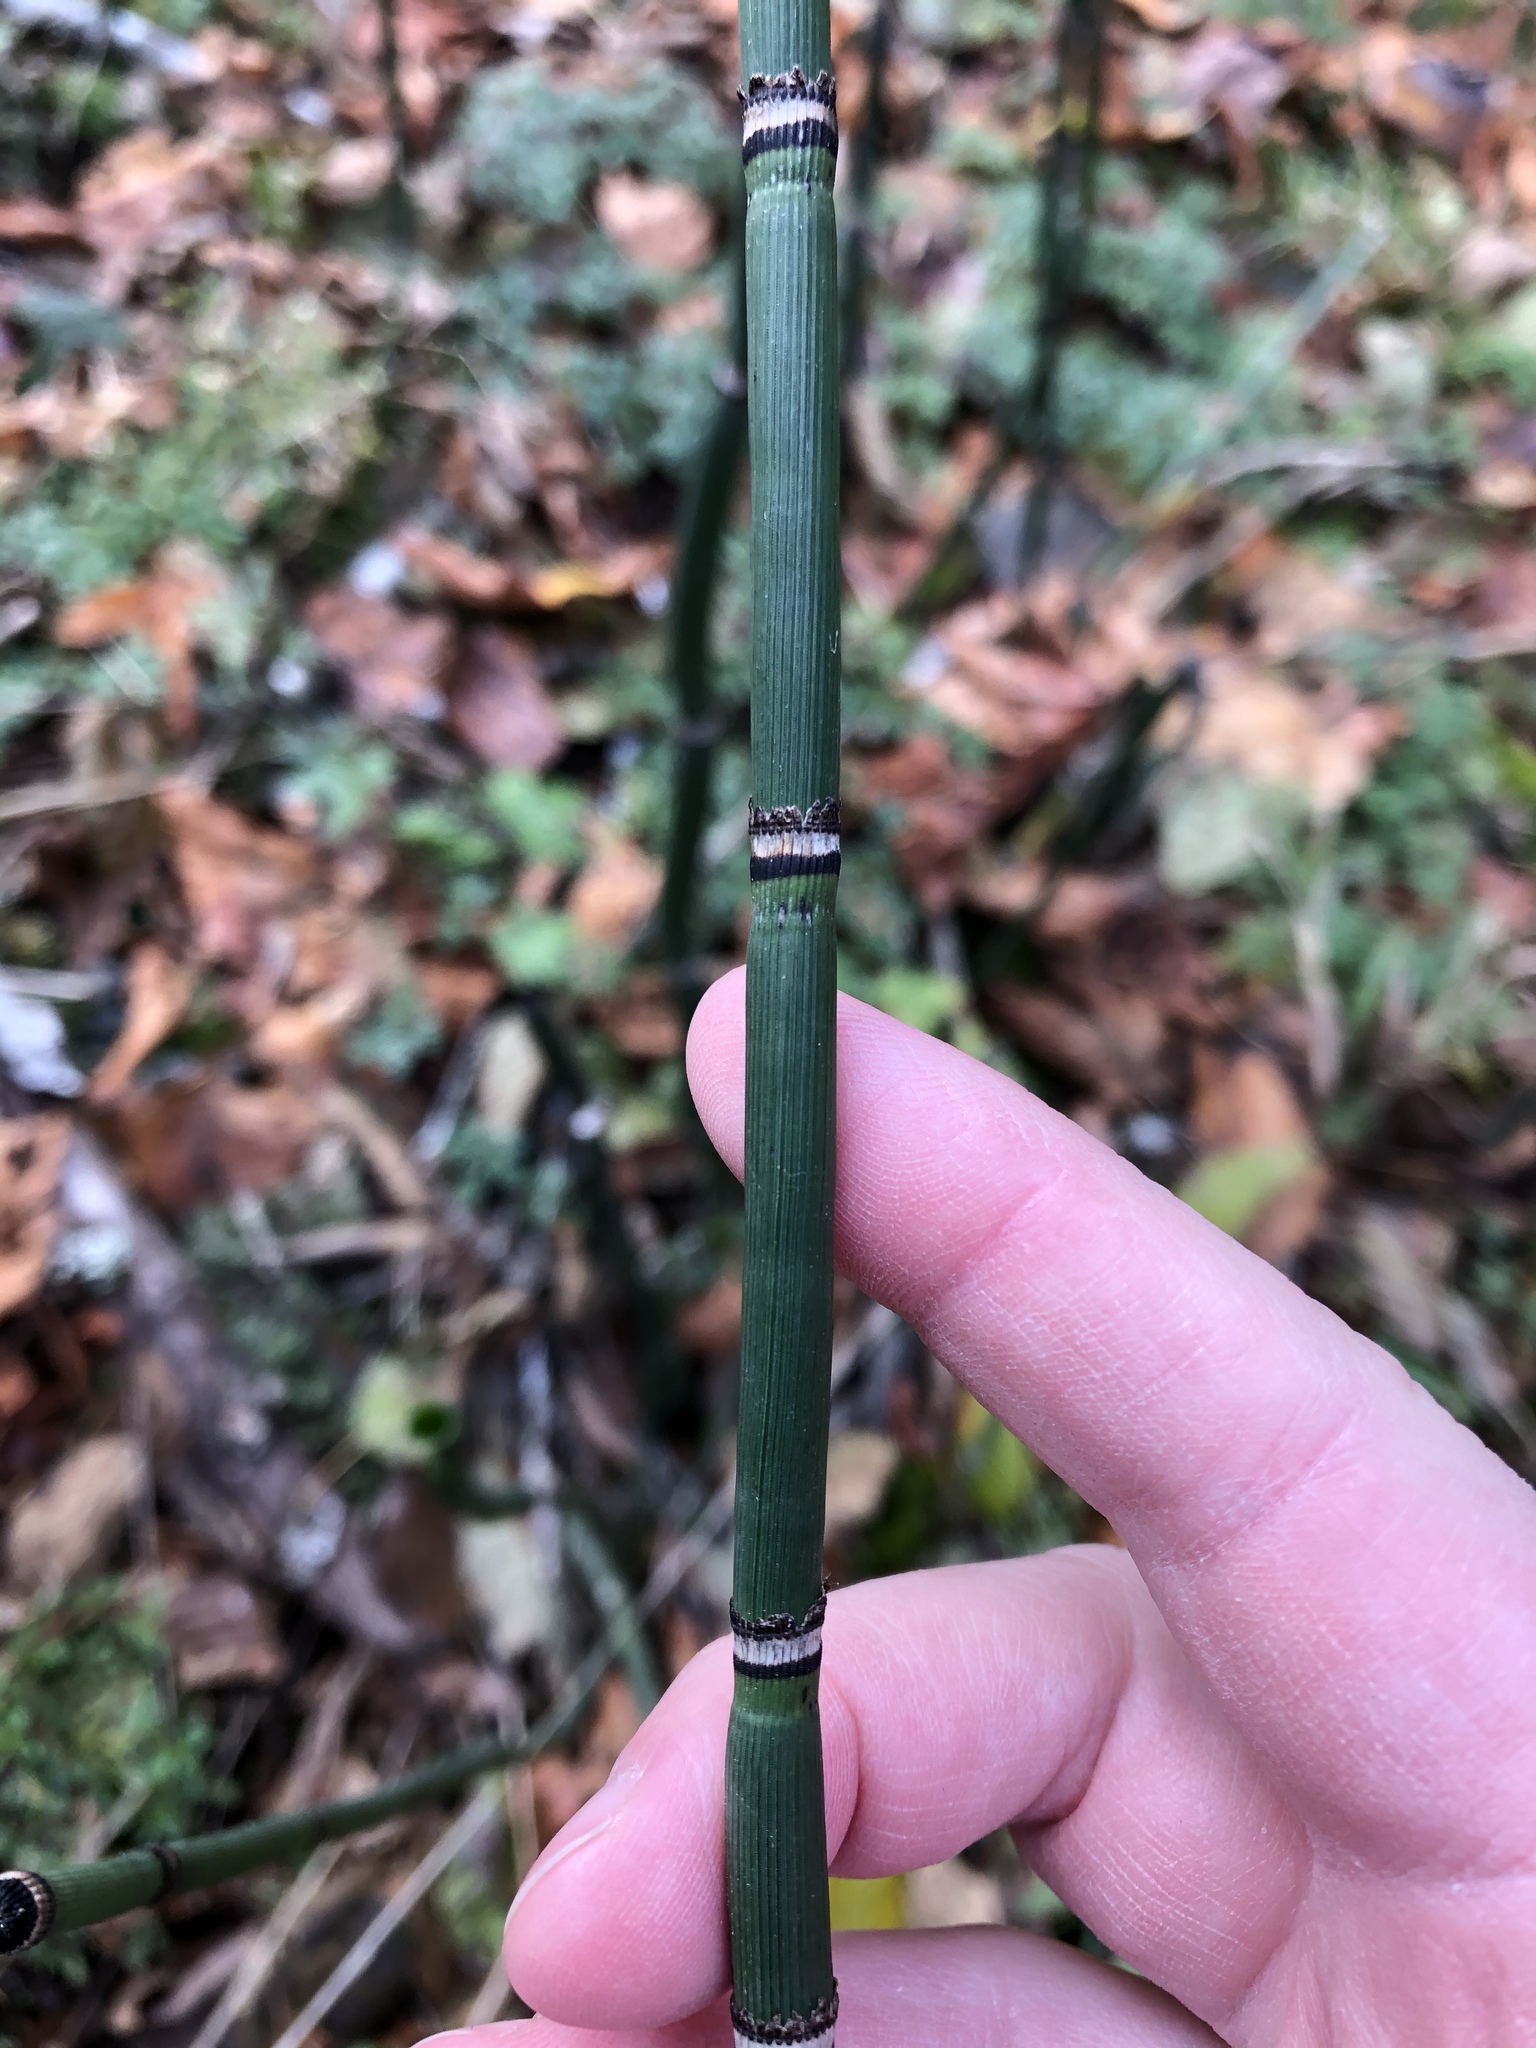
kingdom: Plantae
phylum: Tracheophyta
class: Polypodiopsida
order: Equisetales
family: Equisetaceae
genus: Equisetum
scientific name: Equisetum praealtum
